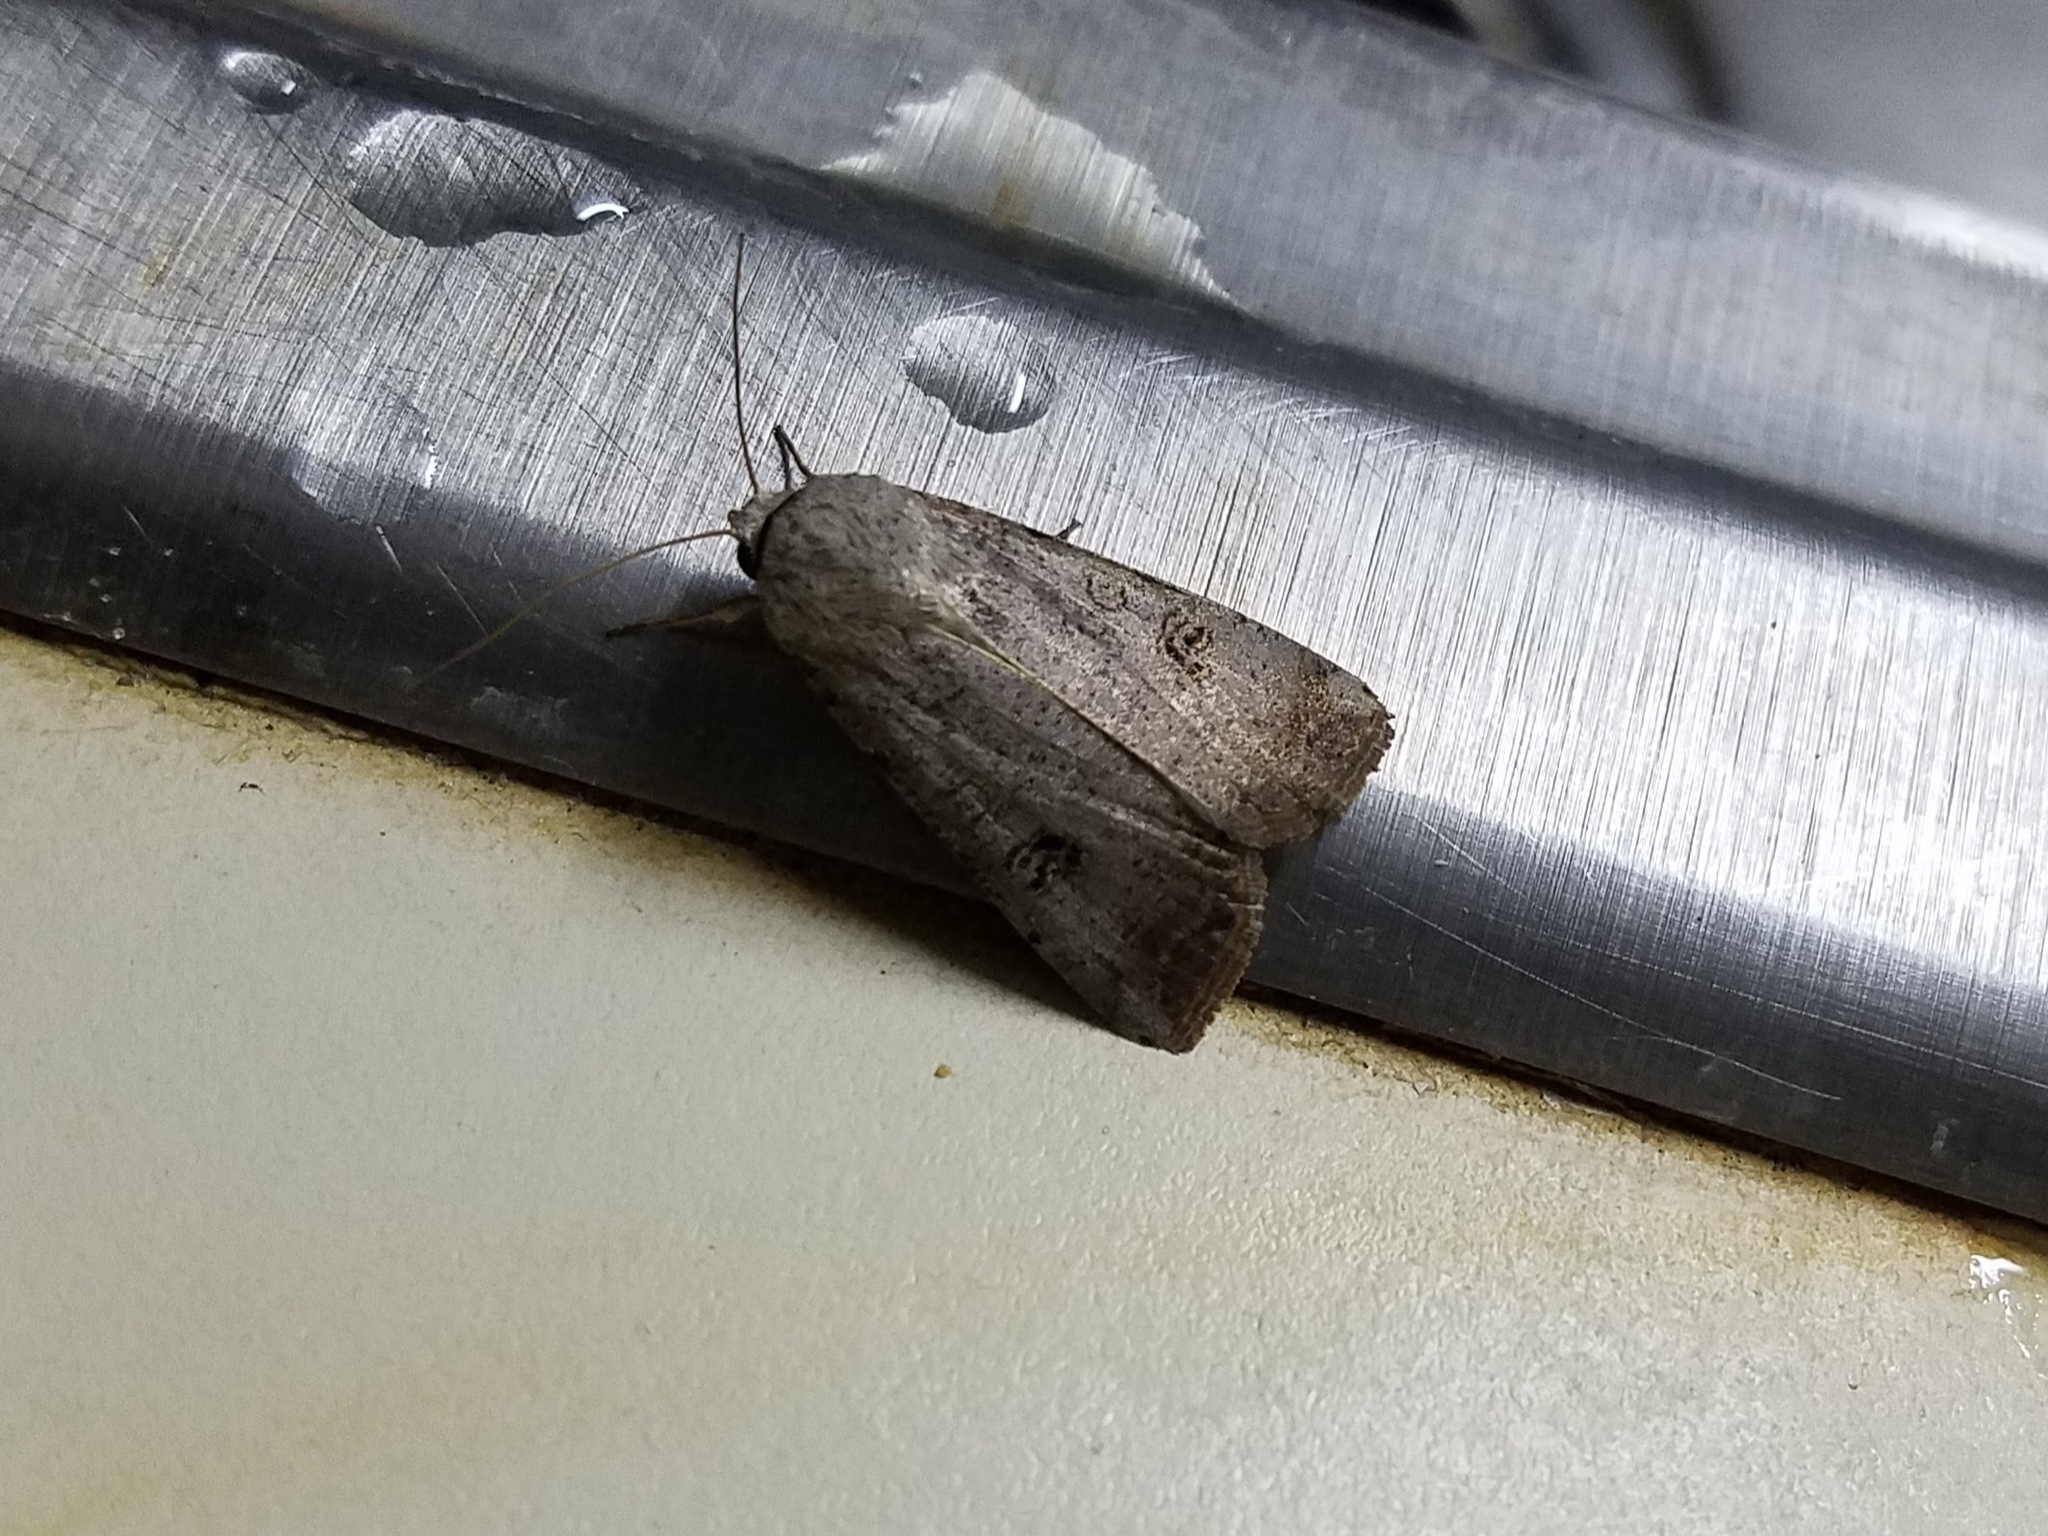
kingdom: Animalia
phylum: Arthropoda
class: Insecta
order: Lepidoptera
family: Noctuidae
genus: Anicla
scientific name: Anicla infecta
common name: Green cutworm
